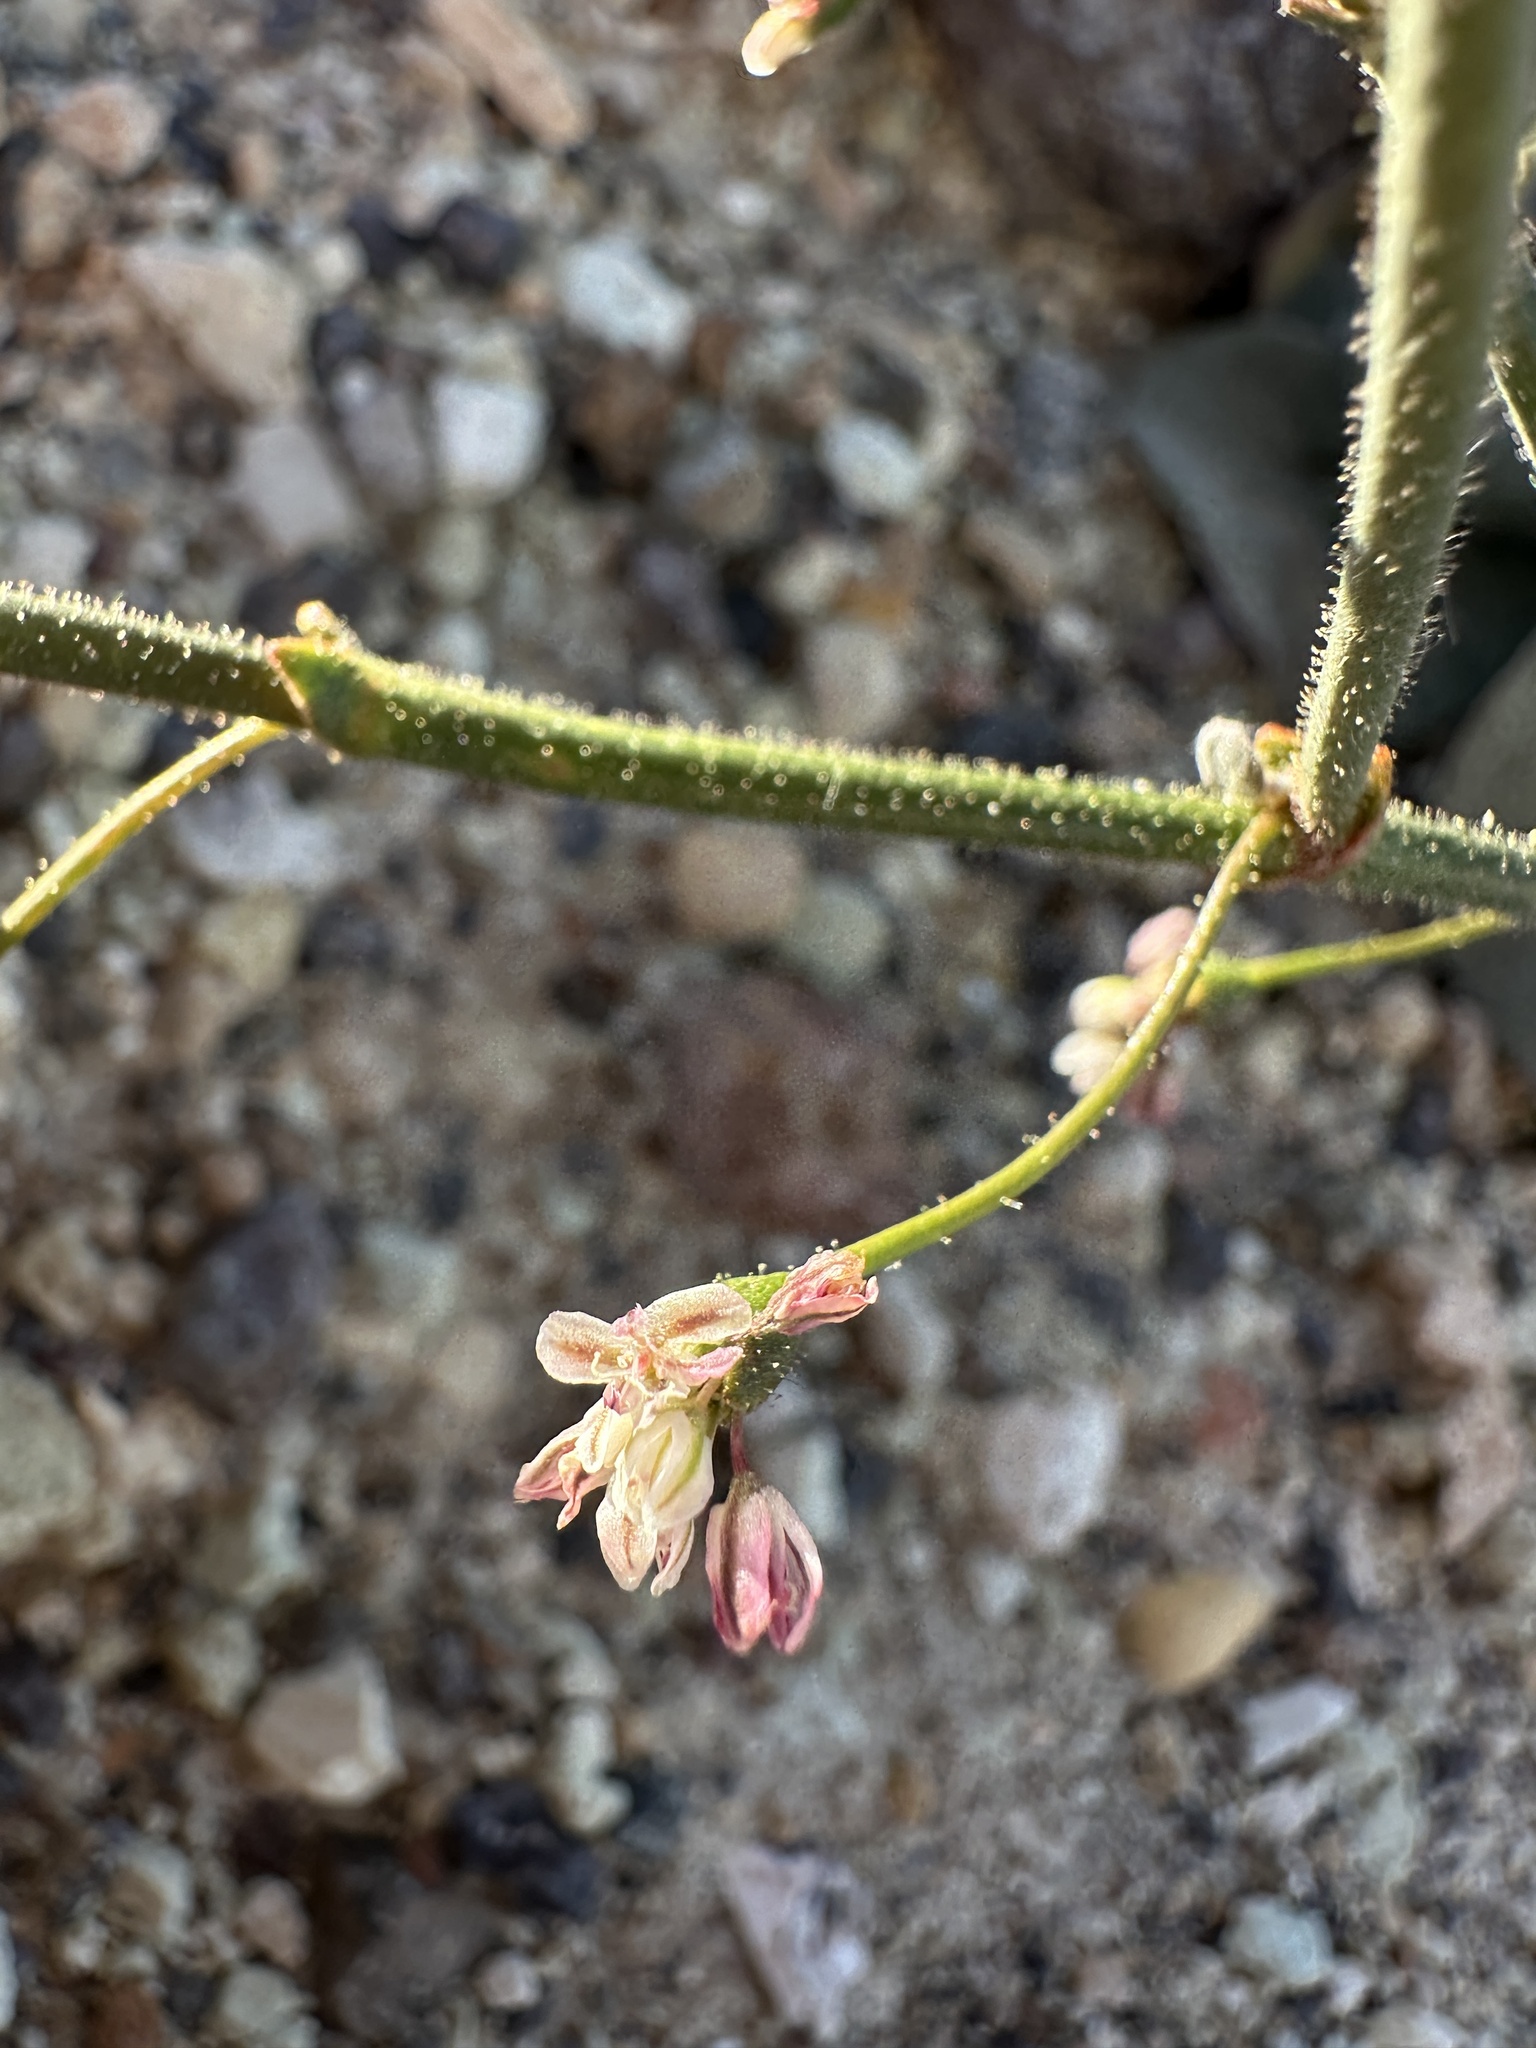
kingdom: Plantae
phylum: Tracheophyta
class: Magnoliopsida
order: Caryophyllales
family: Polygonaceae
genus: Eriogonum
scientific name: Eriogonum brachypodum
